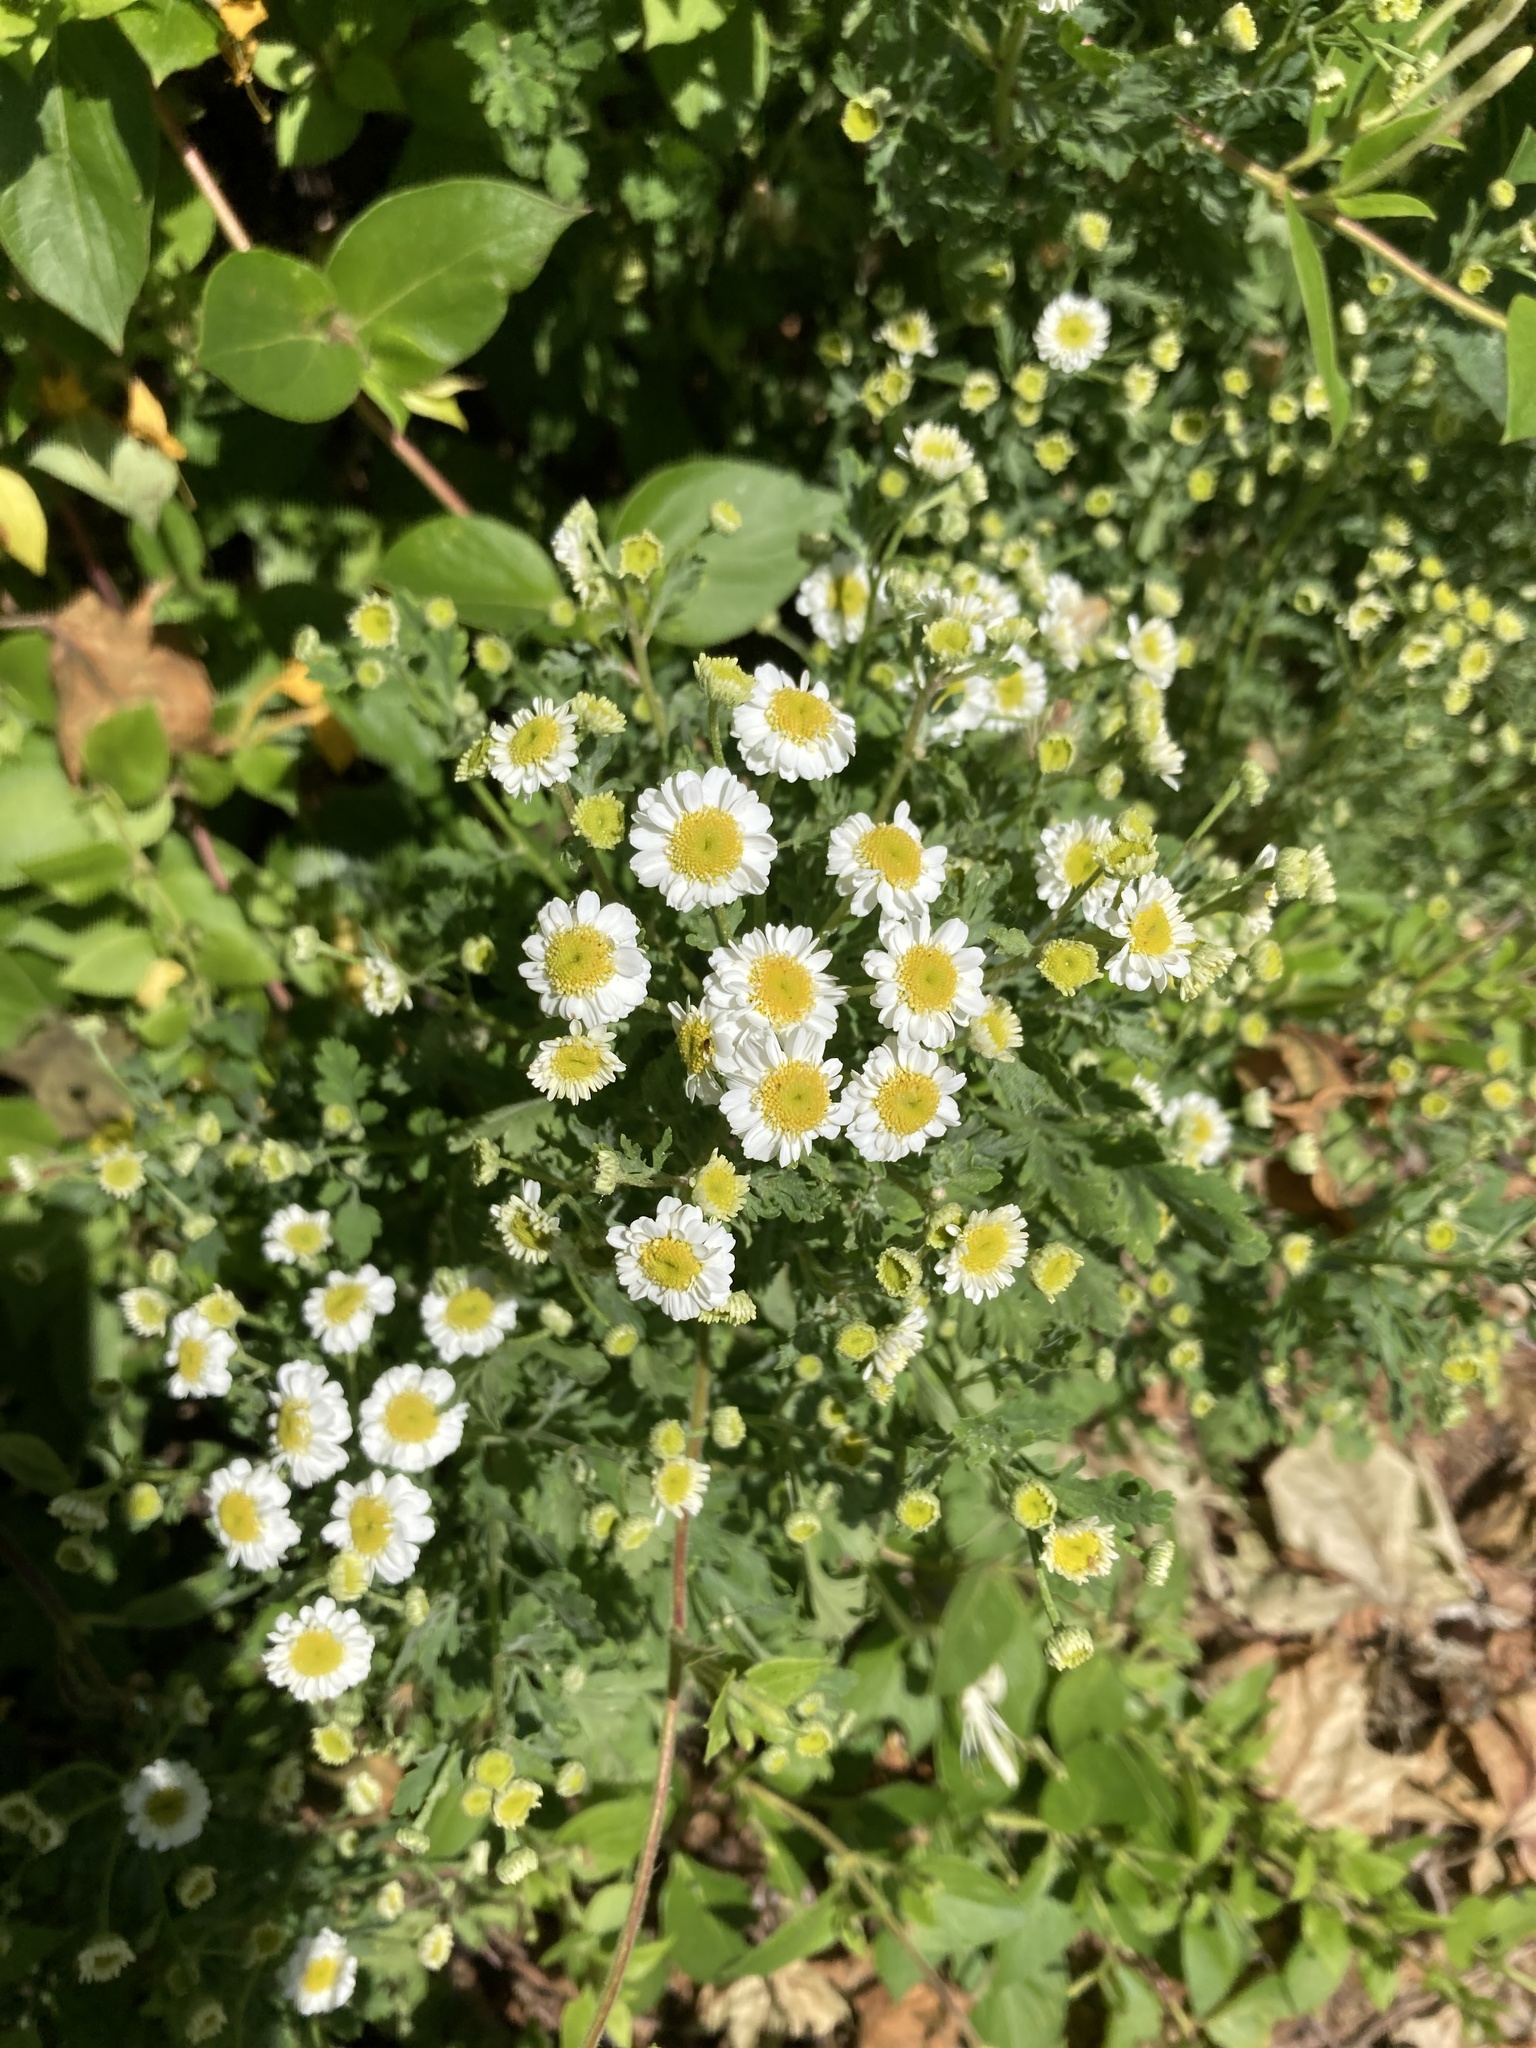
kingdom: Plantae
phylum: Tracheophyta
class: Magnoliopsida
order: Asterales
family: Asteraceae
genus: Tanacetum
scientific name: Tanacetum parthenium
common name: Feverfew
